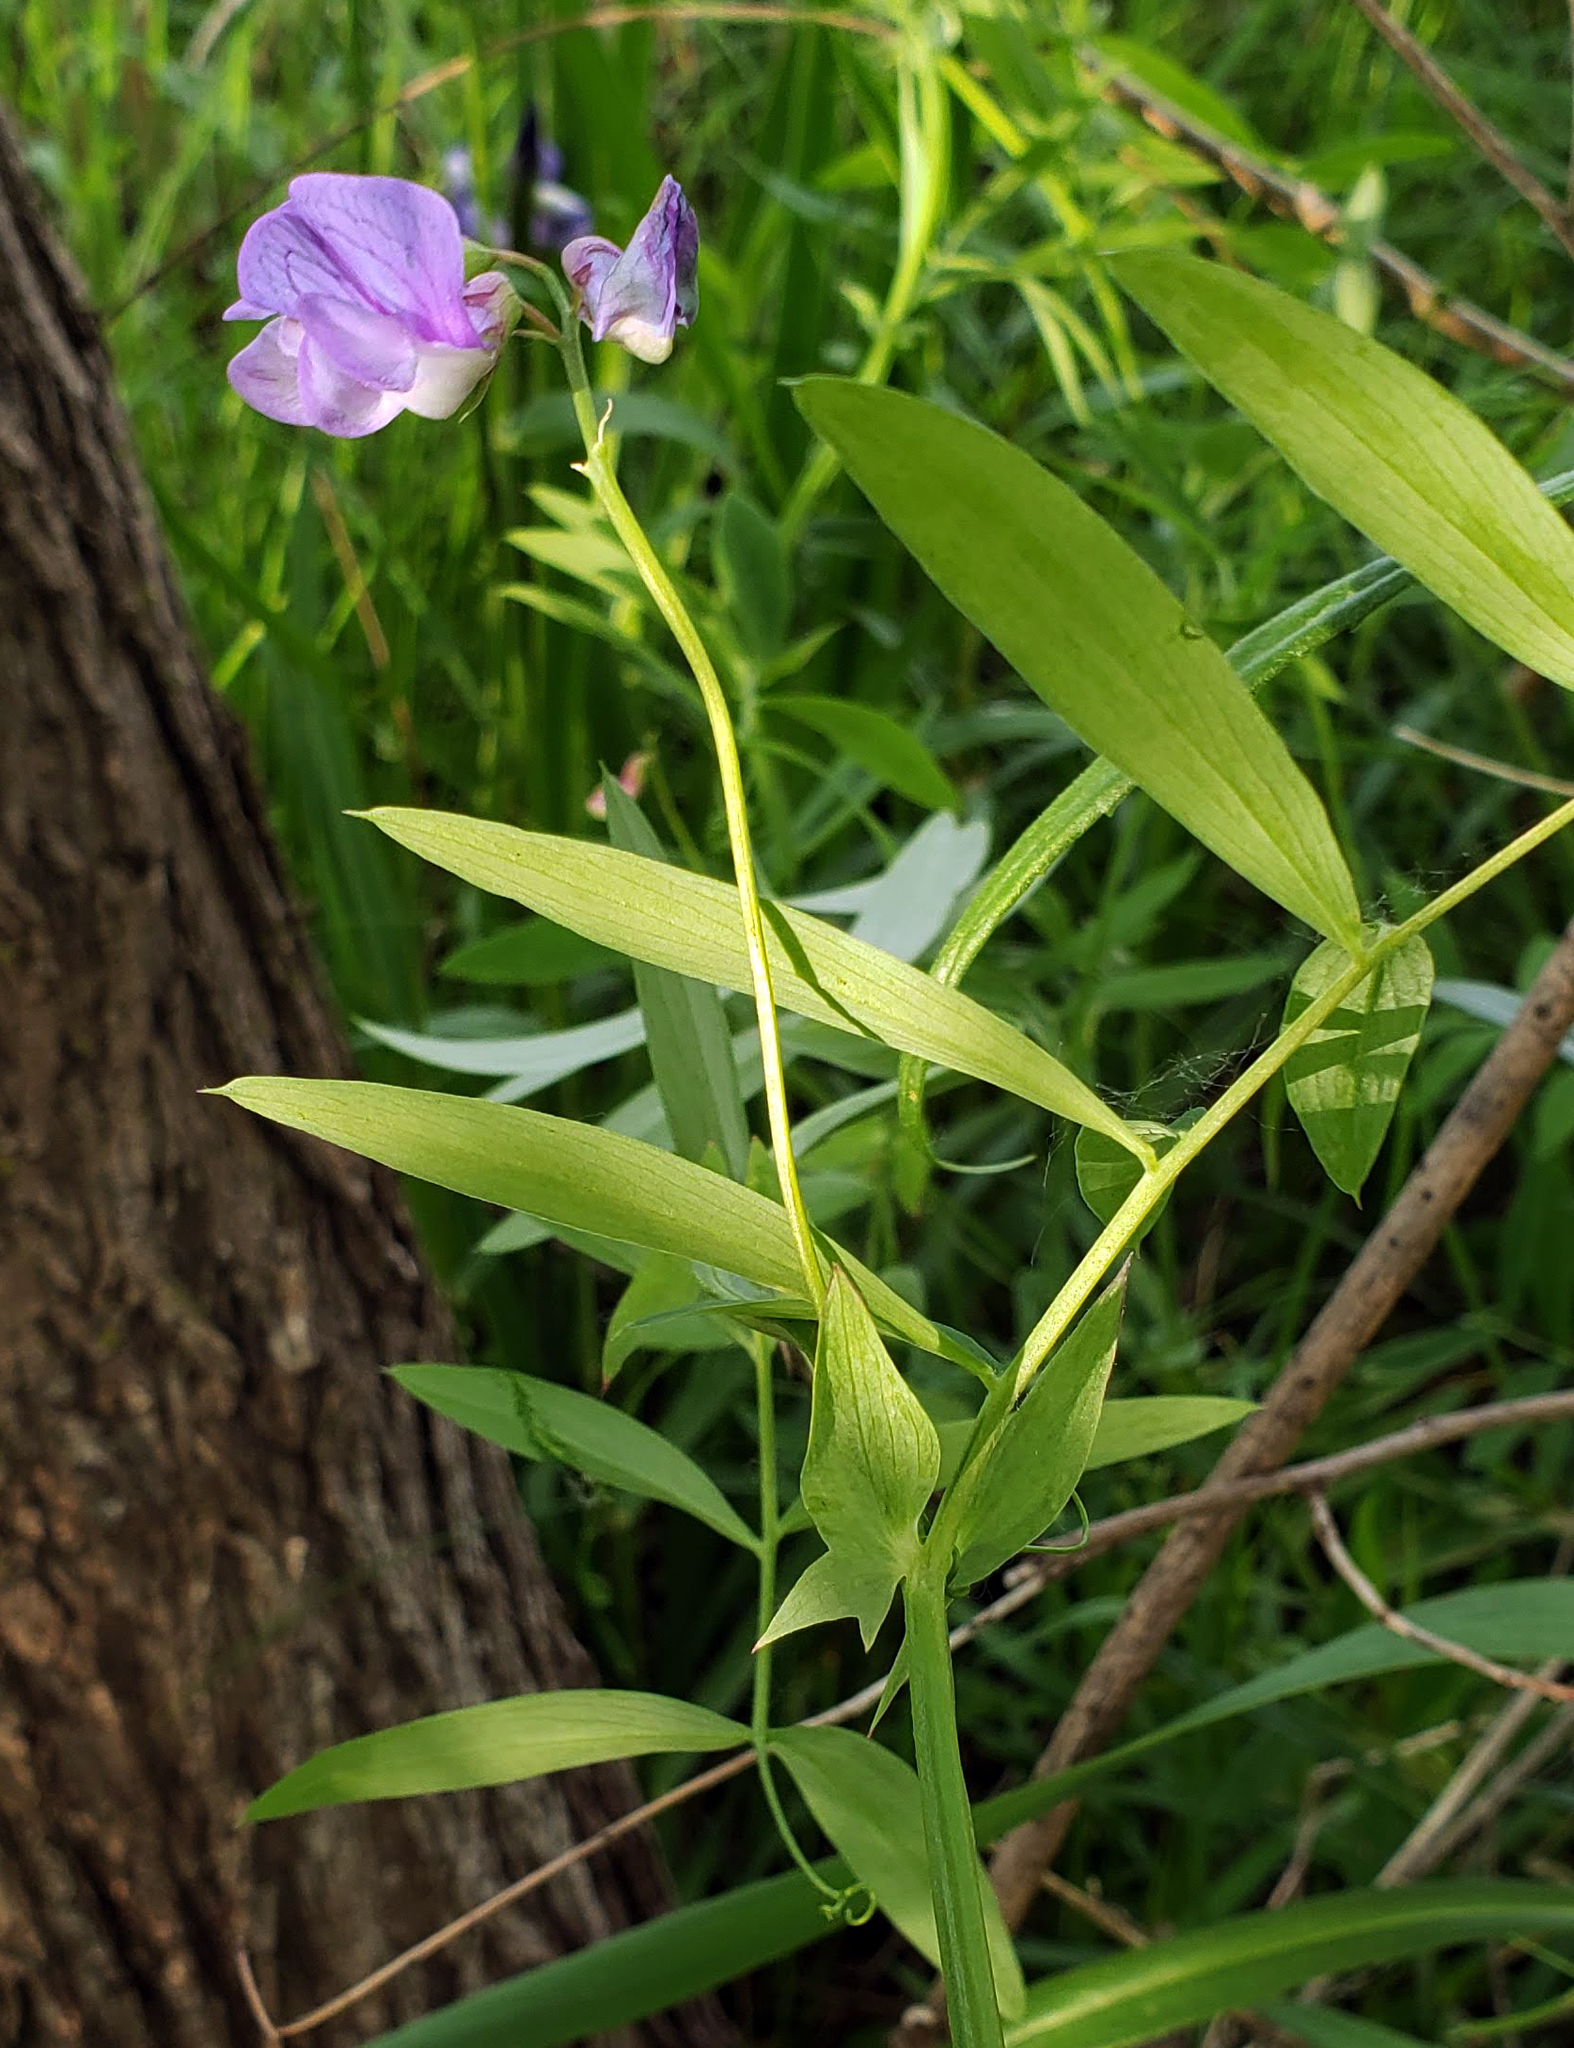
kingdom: Plantae
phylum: Tracheophyta
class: Magnoliopsida
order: Fabales
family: Fabaceae
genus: Lathyrus
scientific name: Lathyrus palustris
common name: Marsh pea
